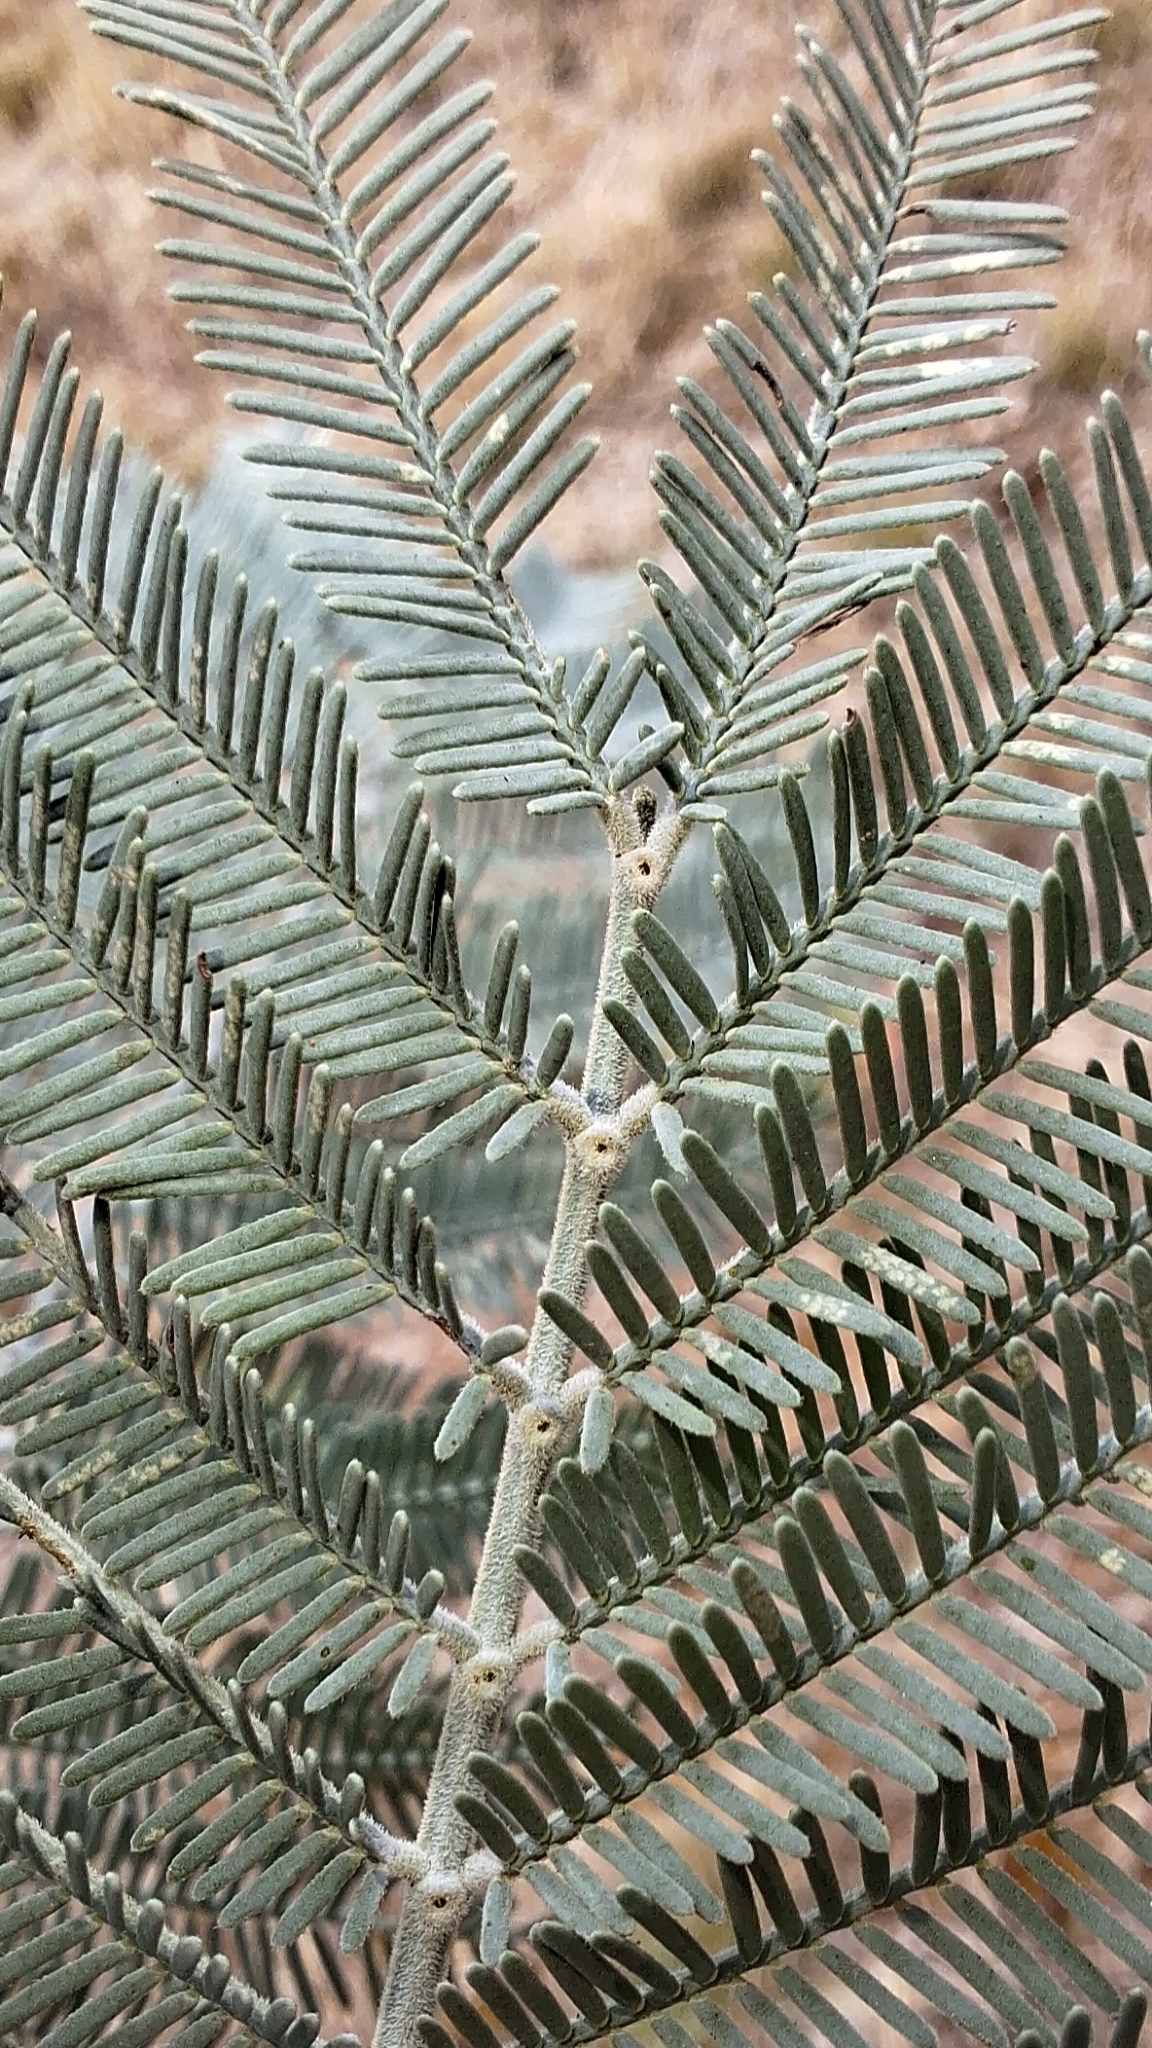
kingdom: Plantae
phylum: Tracheophyta
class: Magnoliopsida
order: Fabales
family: Fabaceae
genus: Acacia
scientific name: Acacia dealbata
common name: Silver wattle
